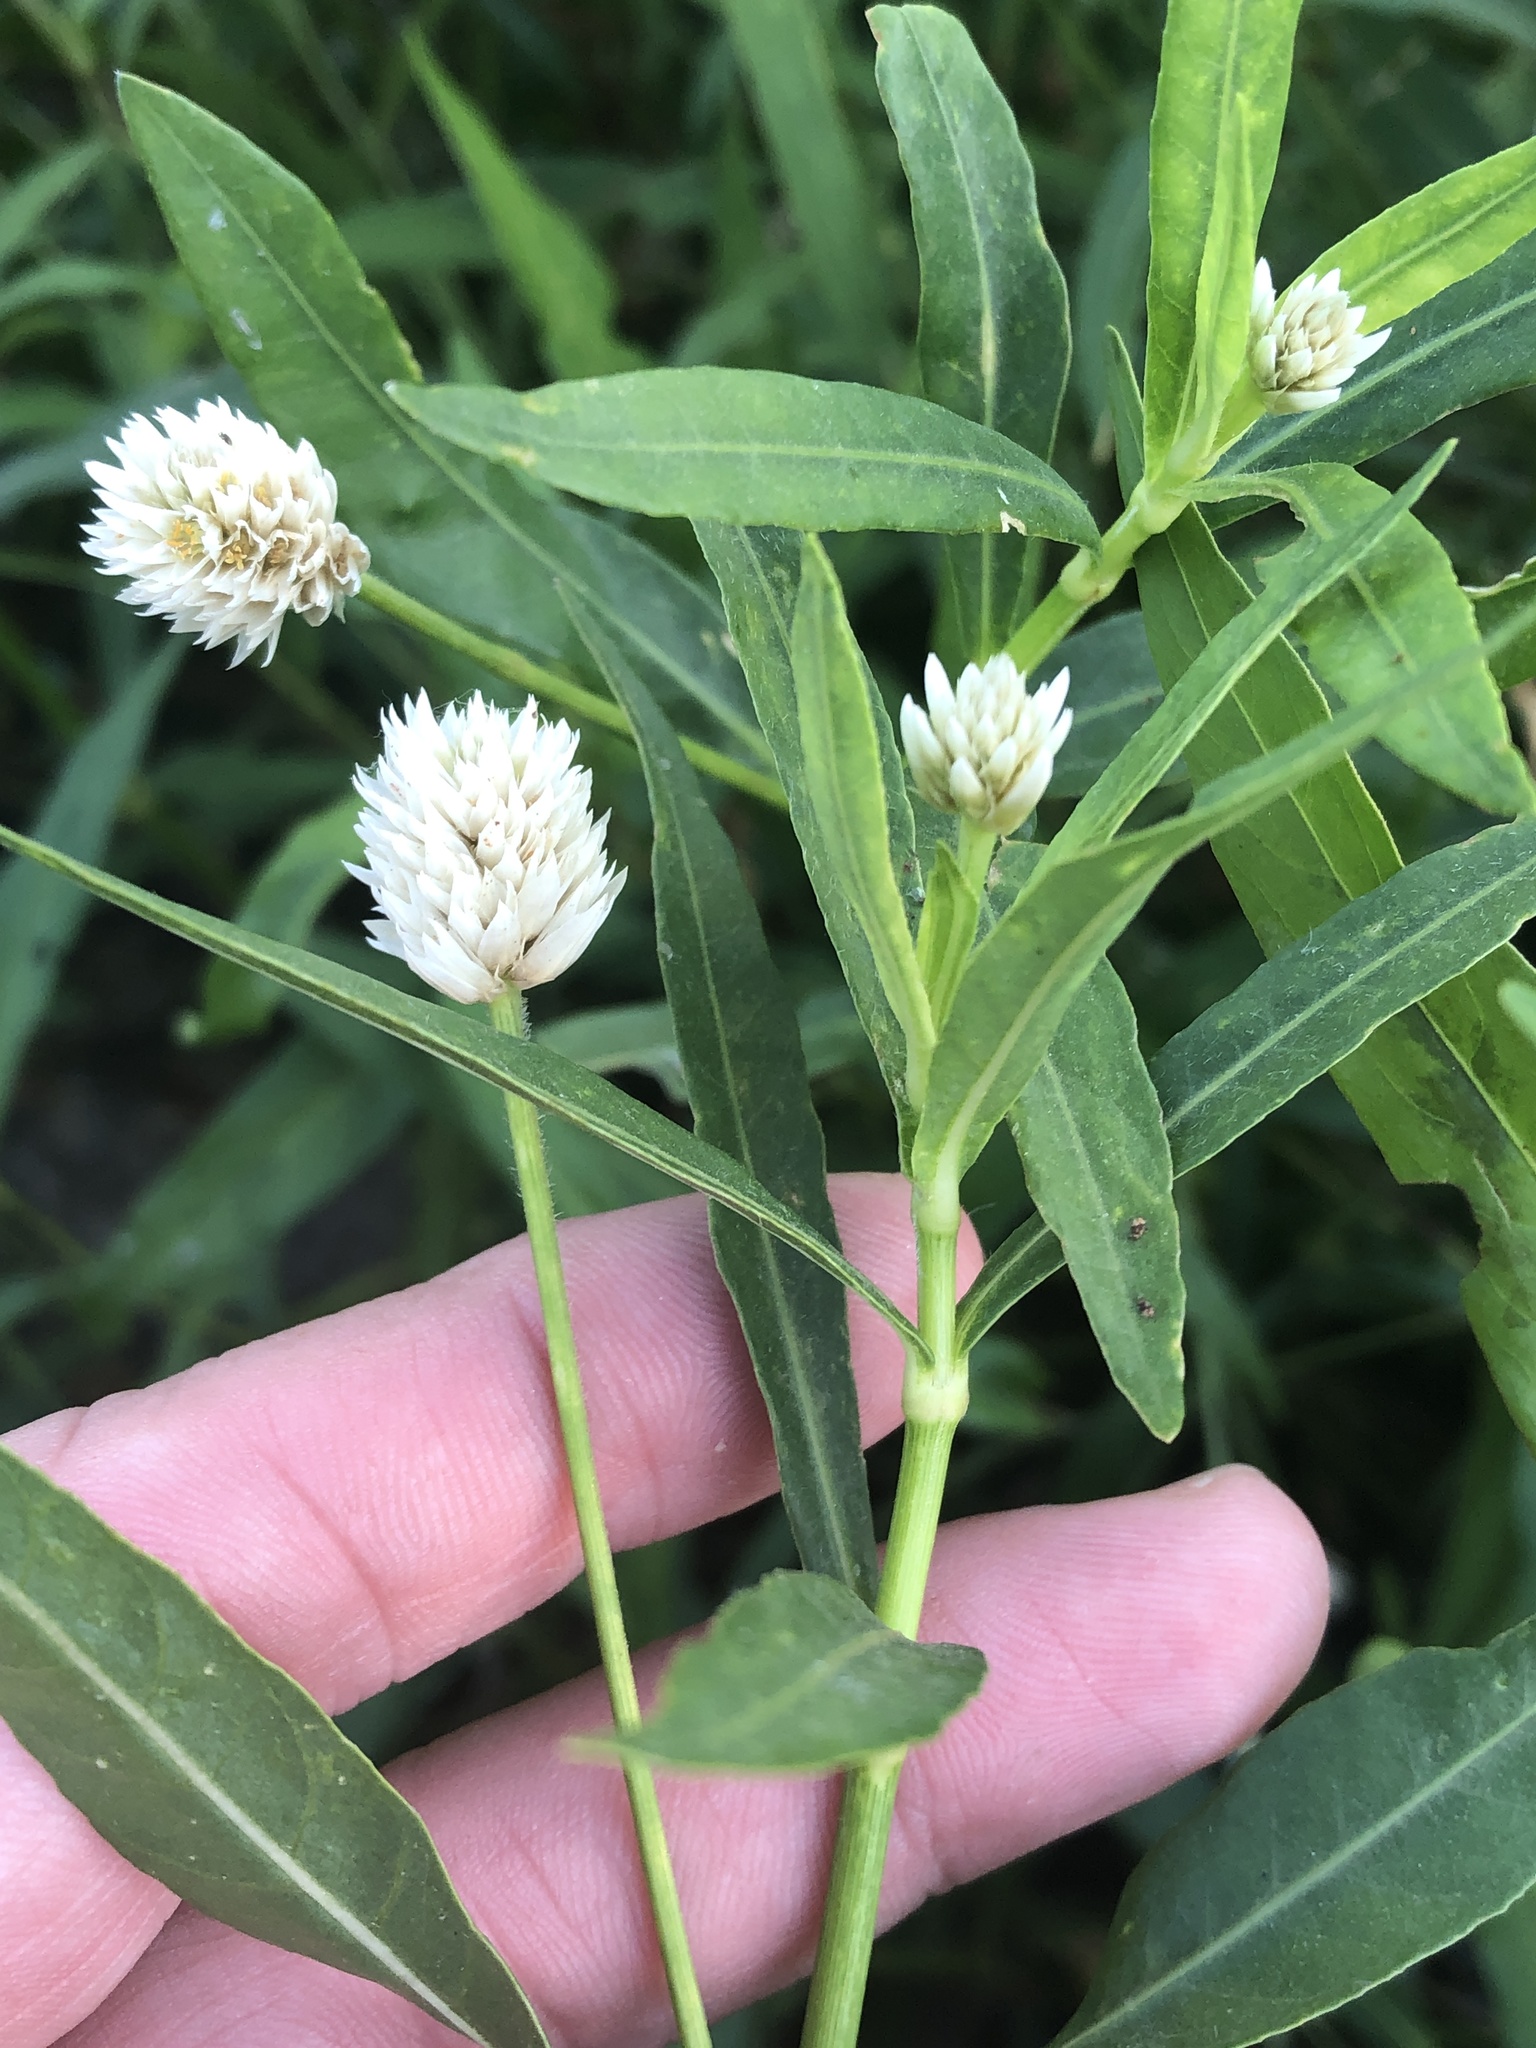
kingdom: Plantae
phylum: Tracheophyta
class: Magnoliopsida
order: Caryophyllales
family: Amaranthaceae
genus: Alternanthera
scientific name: Alternanthera philoxeroides
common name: Alligatorweed
